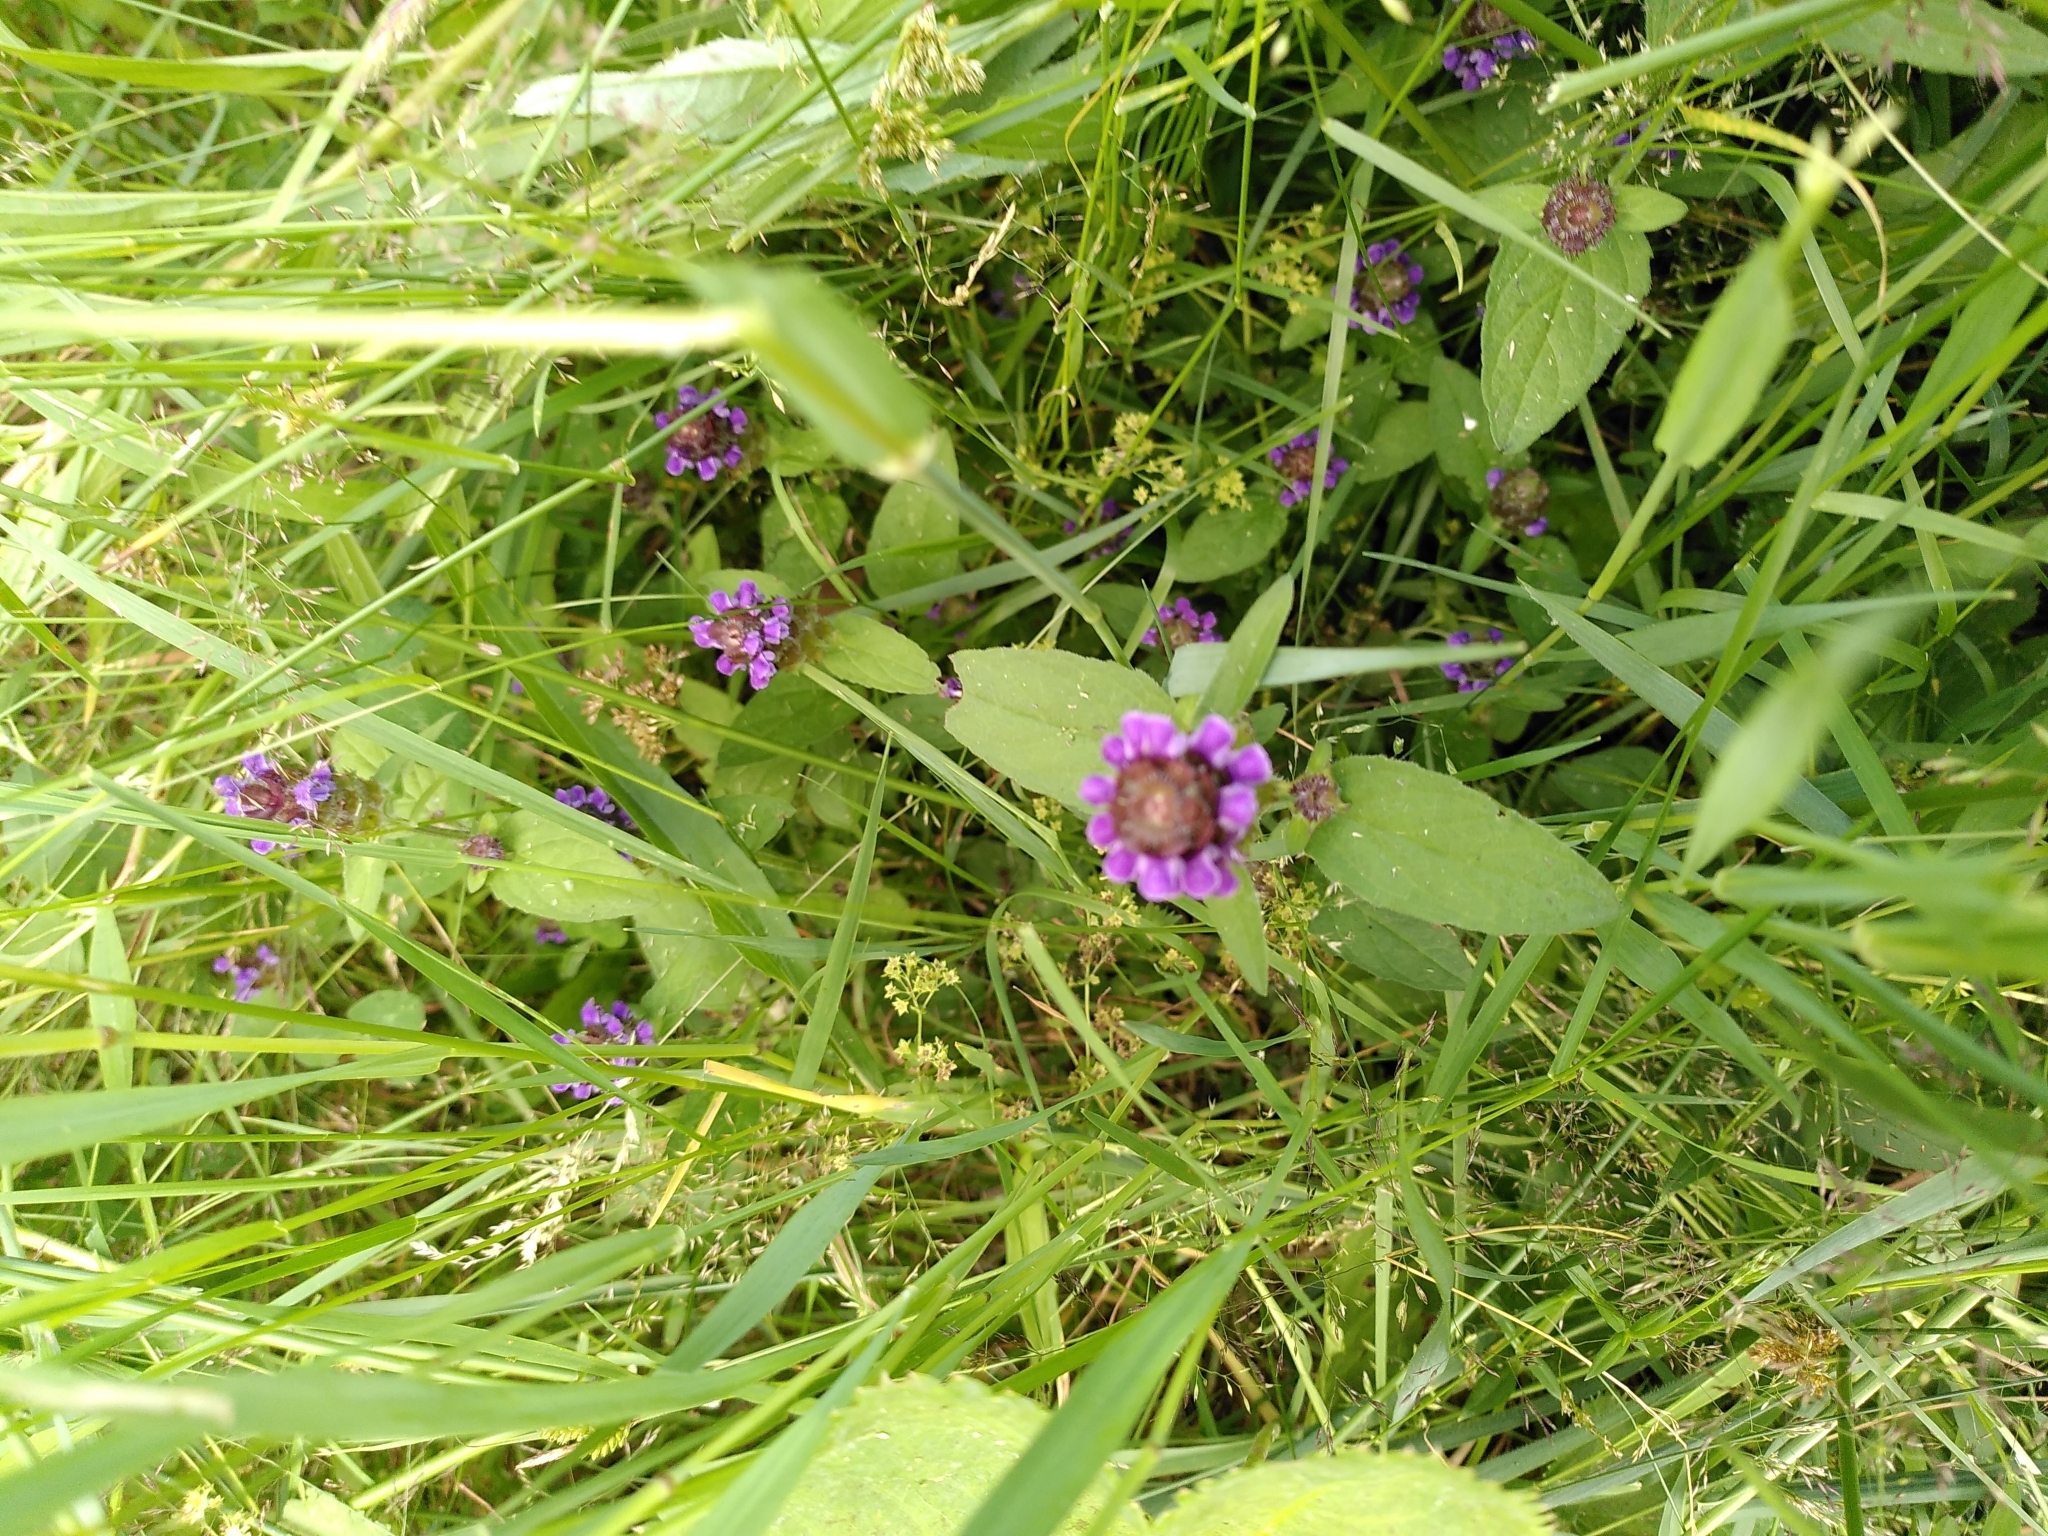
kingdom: Plantae
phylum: Tracheophyta
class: Magnoliopsida
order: Lamiales
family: Lamiaceae
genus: Prunella
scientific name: Prunella vulgaris
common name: Heal-all
